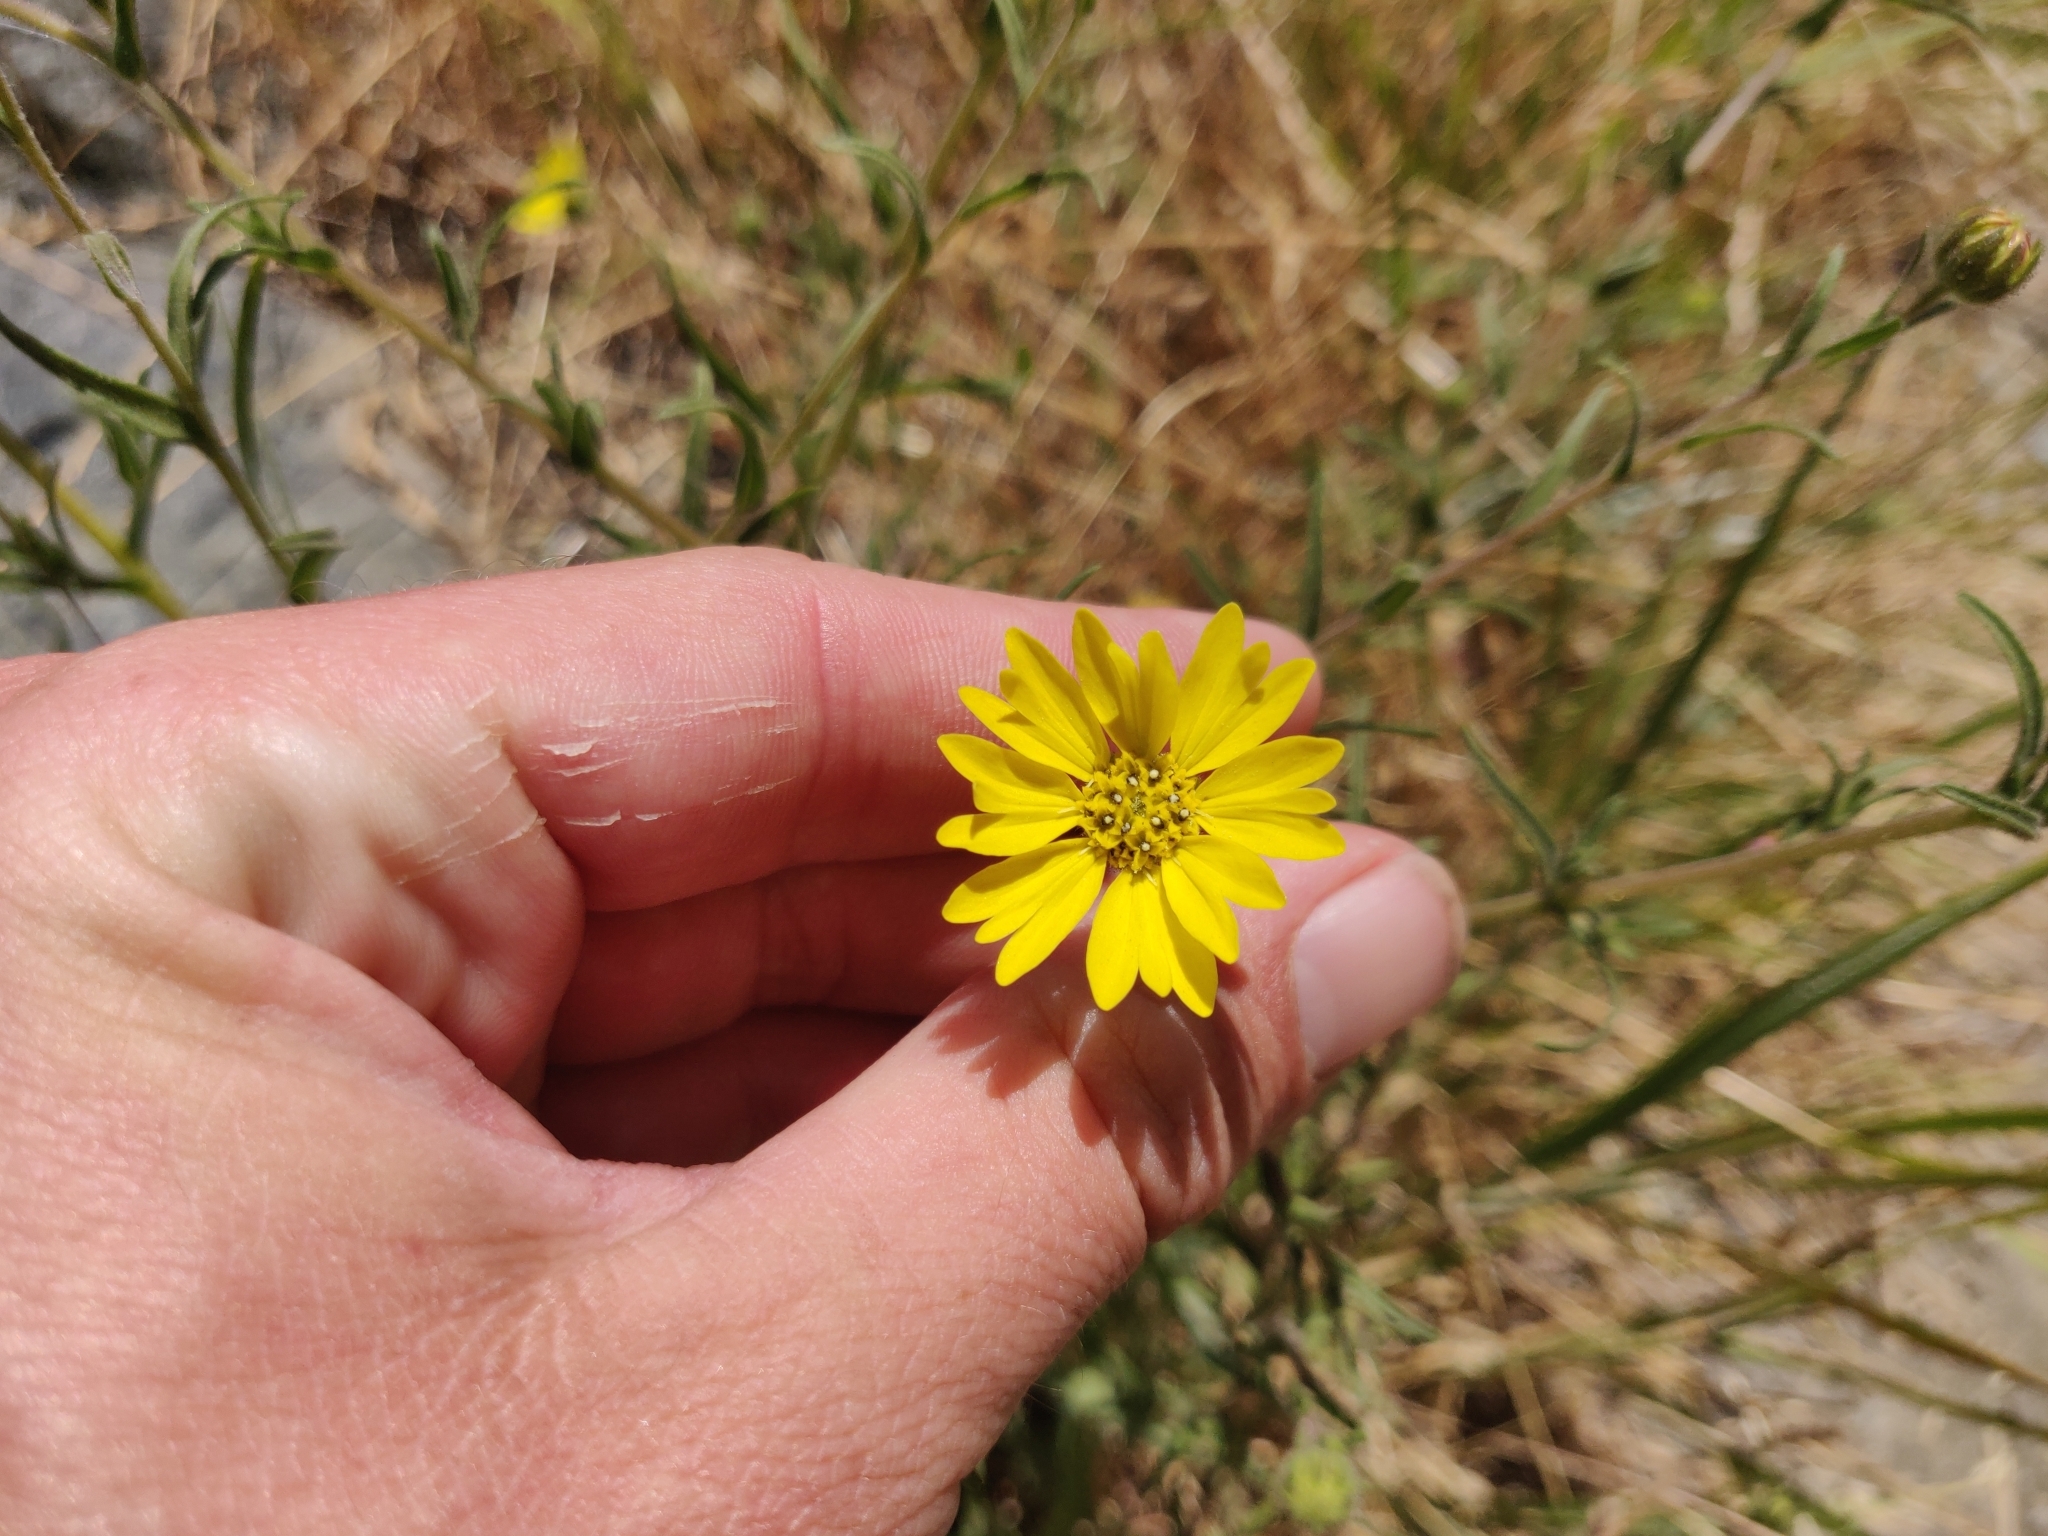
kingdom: Plantae
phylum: Tracheophyta
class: Magnoliopsida
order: Asterales
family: Asteraceae
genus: Hemizonia
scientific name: Hemizonia congesta
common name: Hayfield tarweed
